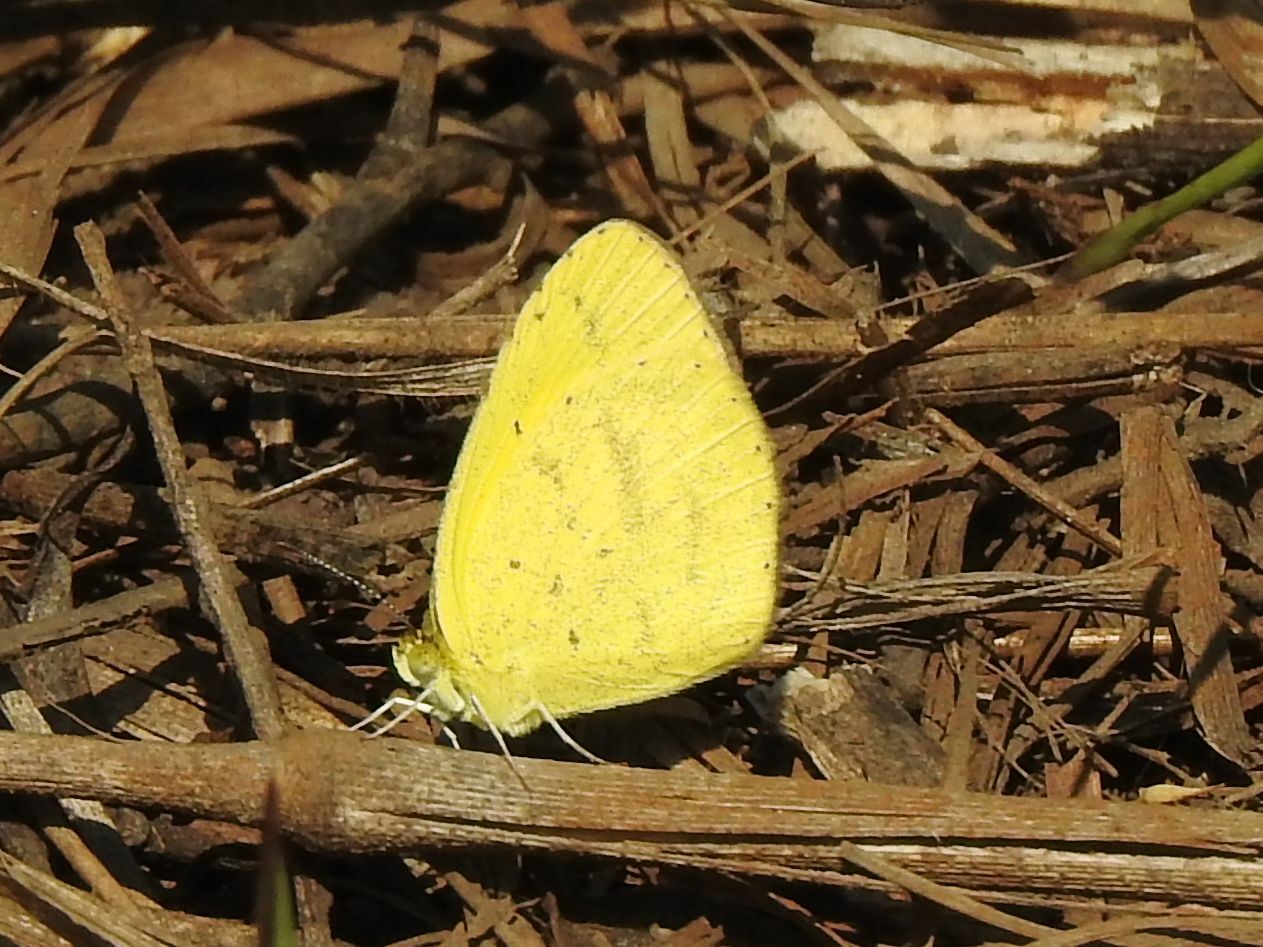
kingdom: Animalia
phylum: Arthropoda
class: Insecta
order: Lepidoptera
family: Pieridae
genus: Eurema
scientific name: Eurema brigitta
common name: Small grass yellow
